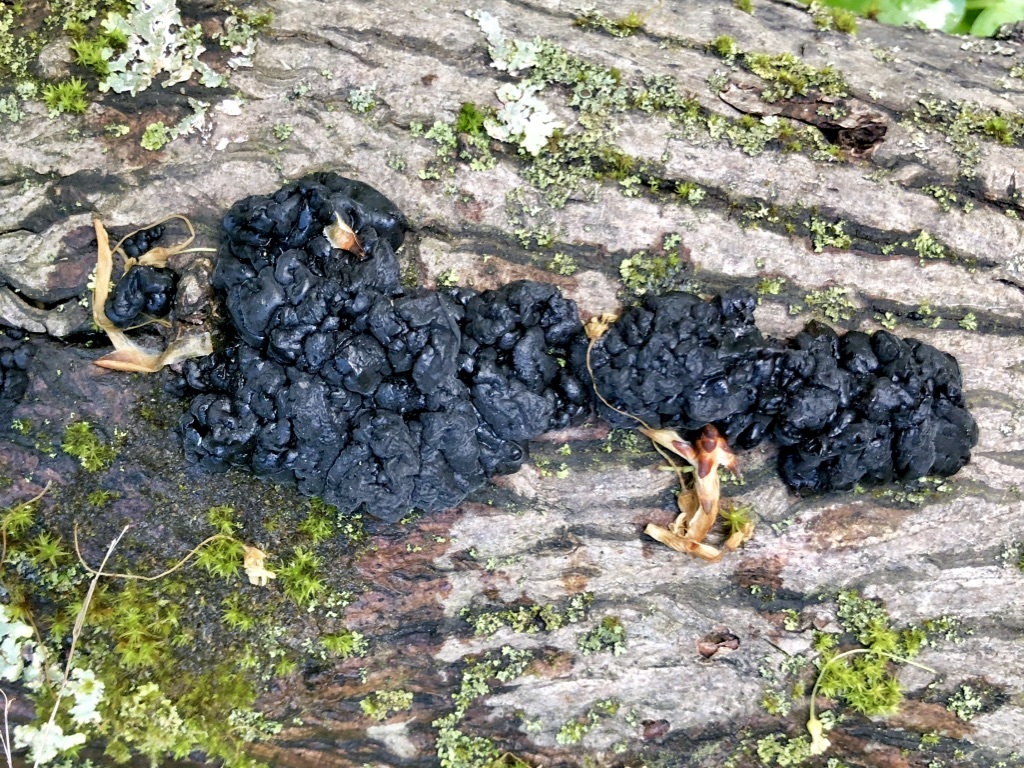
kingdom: Fungi
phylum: Basidiomycota
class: Agaricomycetes
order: Auriculariales
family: Auriculariaceae
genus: Exidia
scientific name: Exidia glandulosa
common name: Witches' butter
